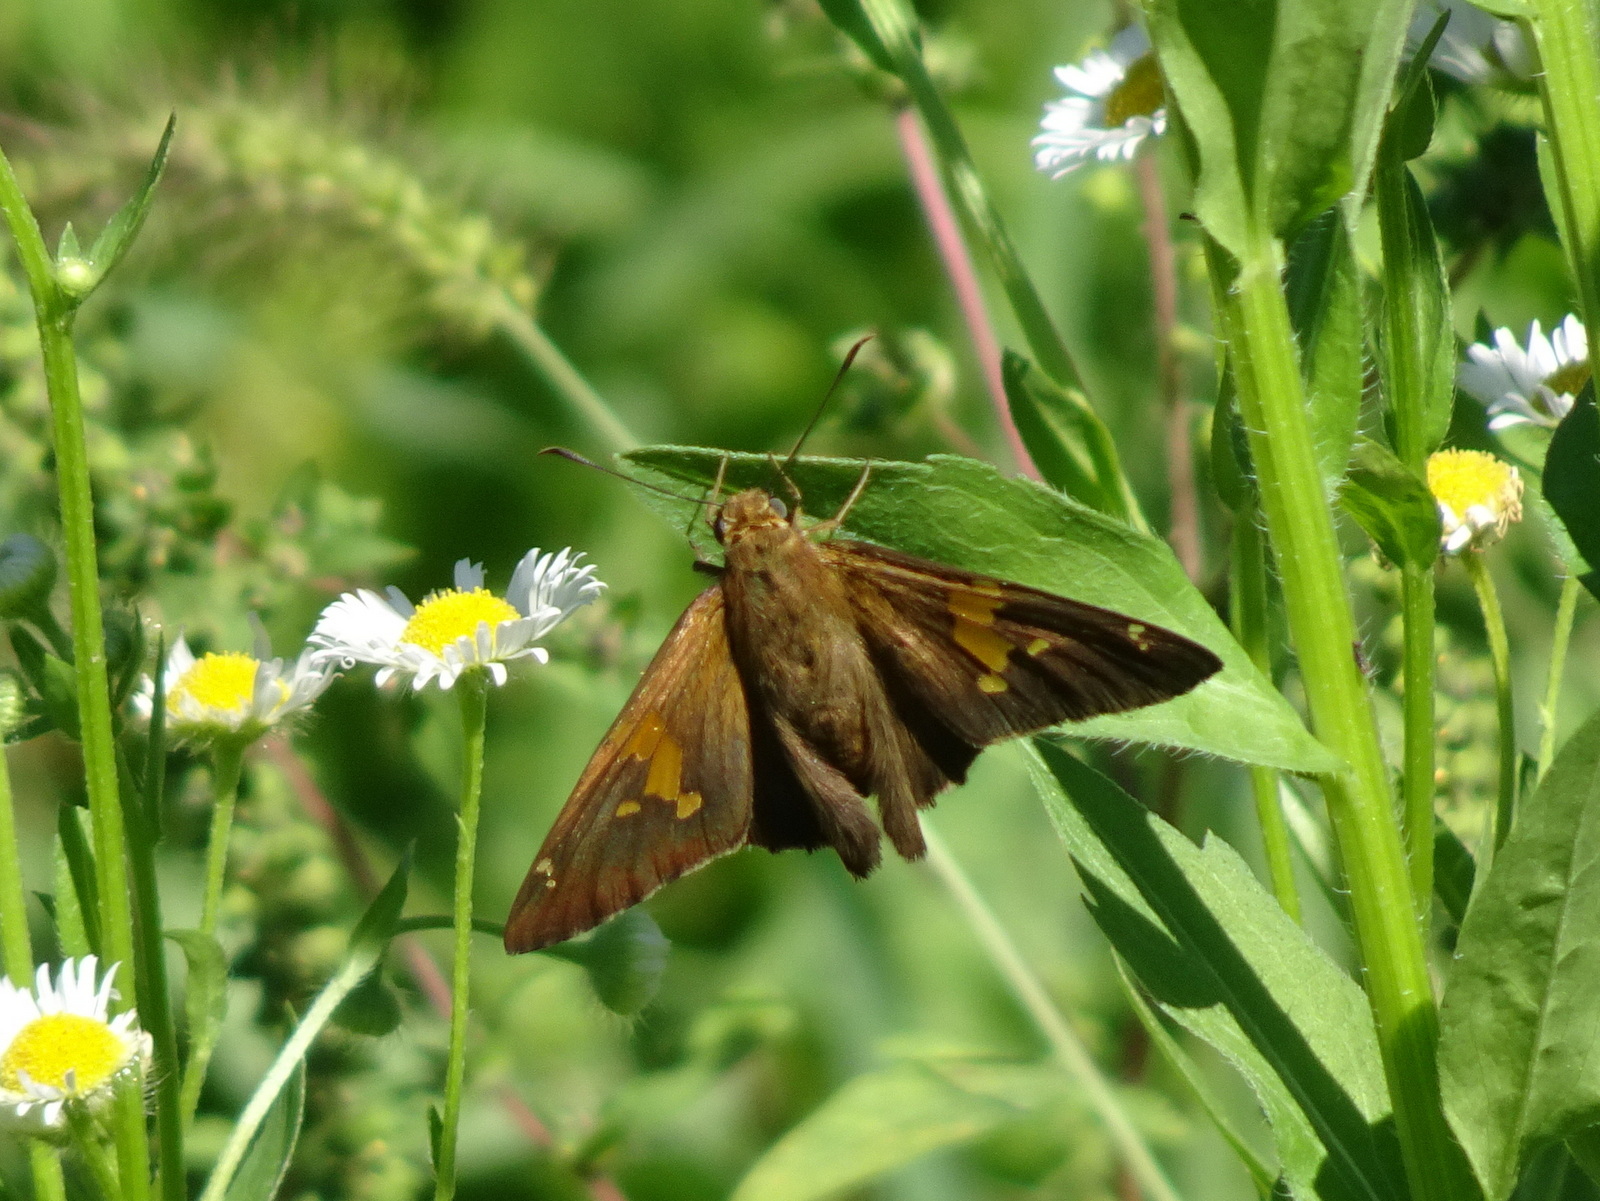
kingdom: Animalia
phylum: Arthropoda
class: Insecta
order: Lepidoptera
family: Hesperiidae
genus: Epargyreus
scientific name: Epargyreus clarus
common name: Silver-spotted skipper
